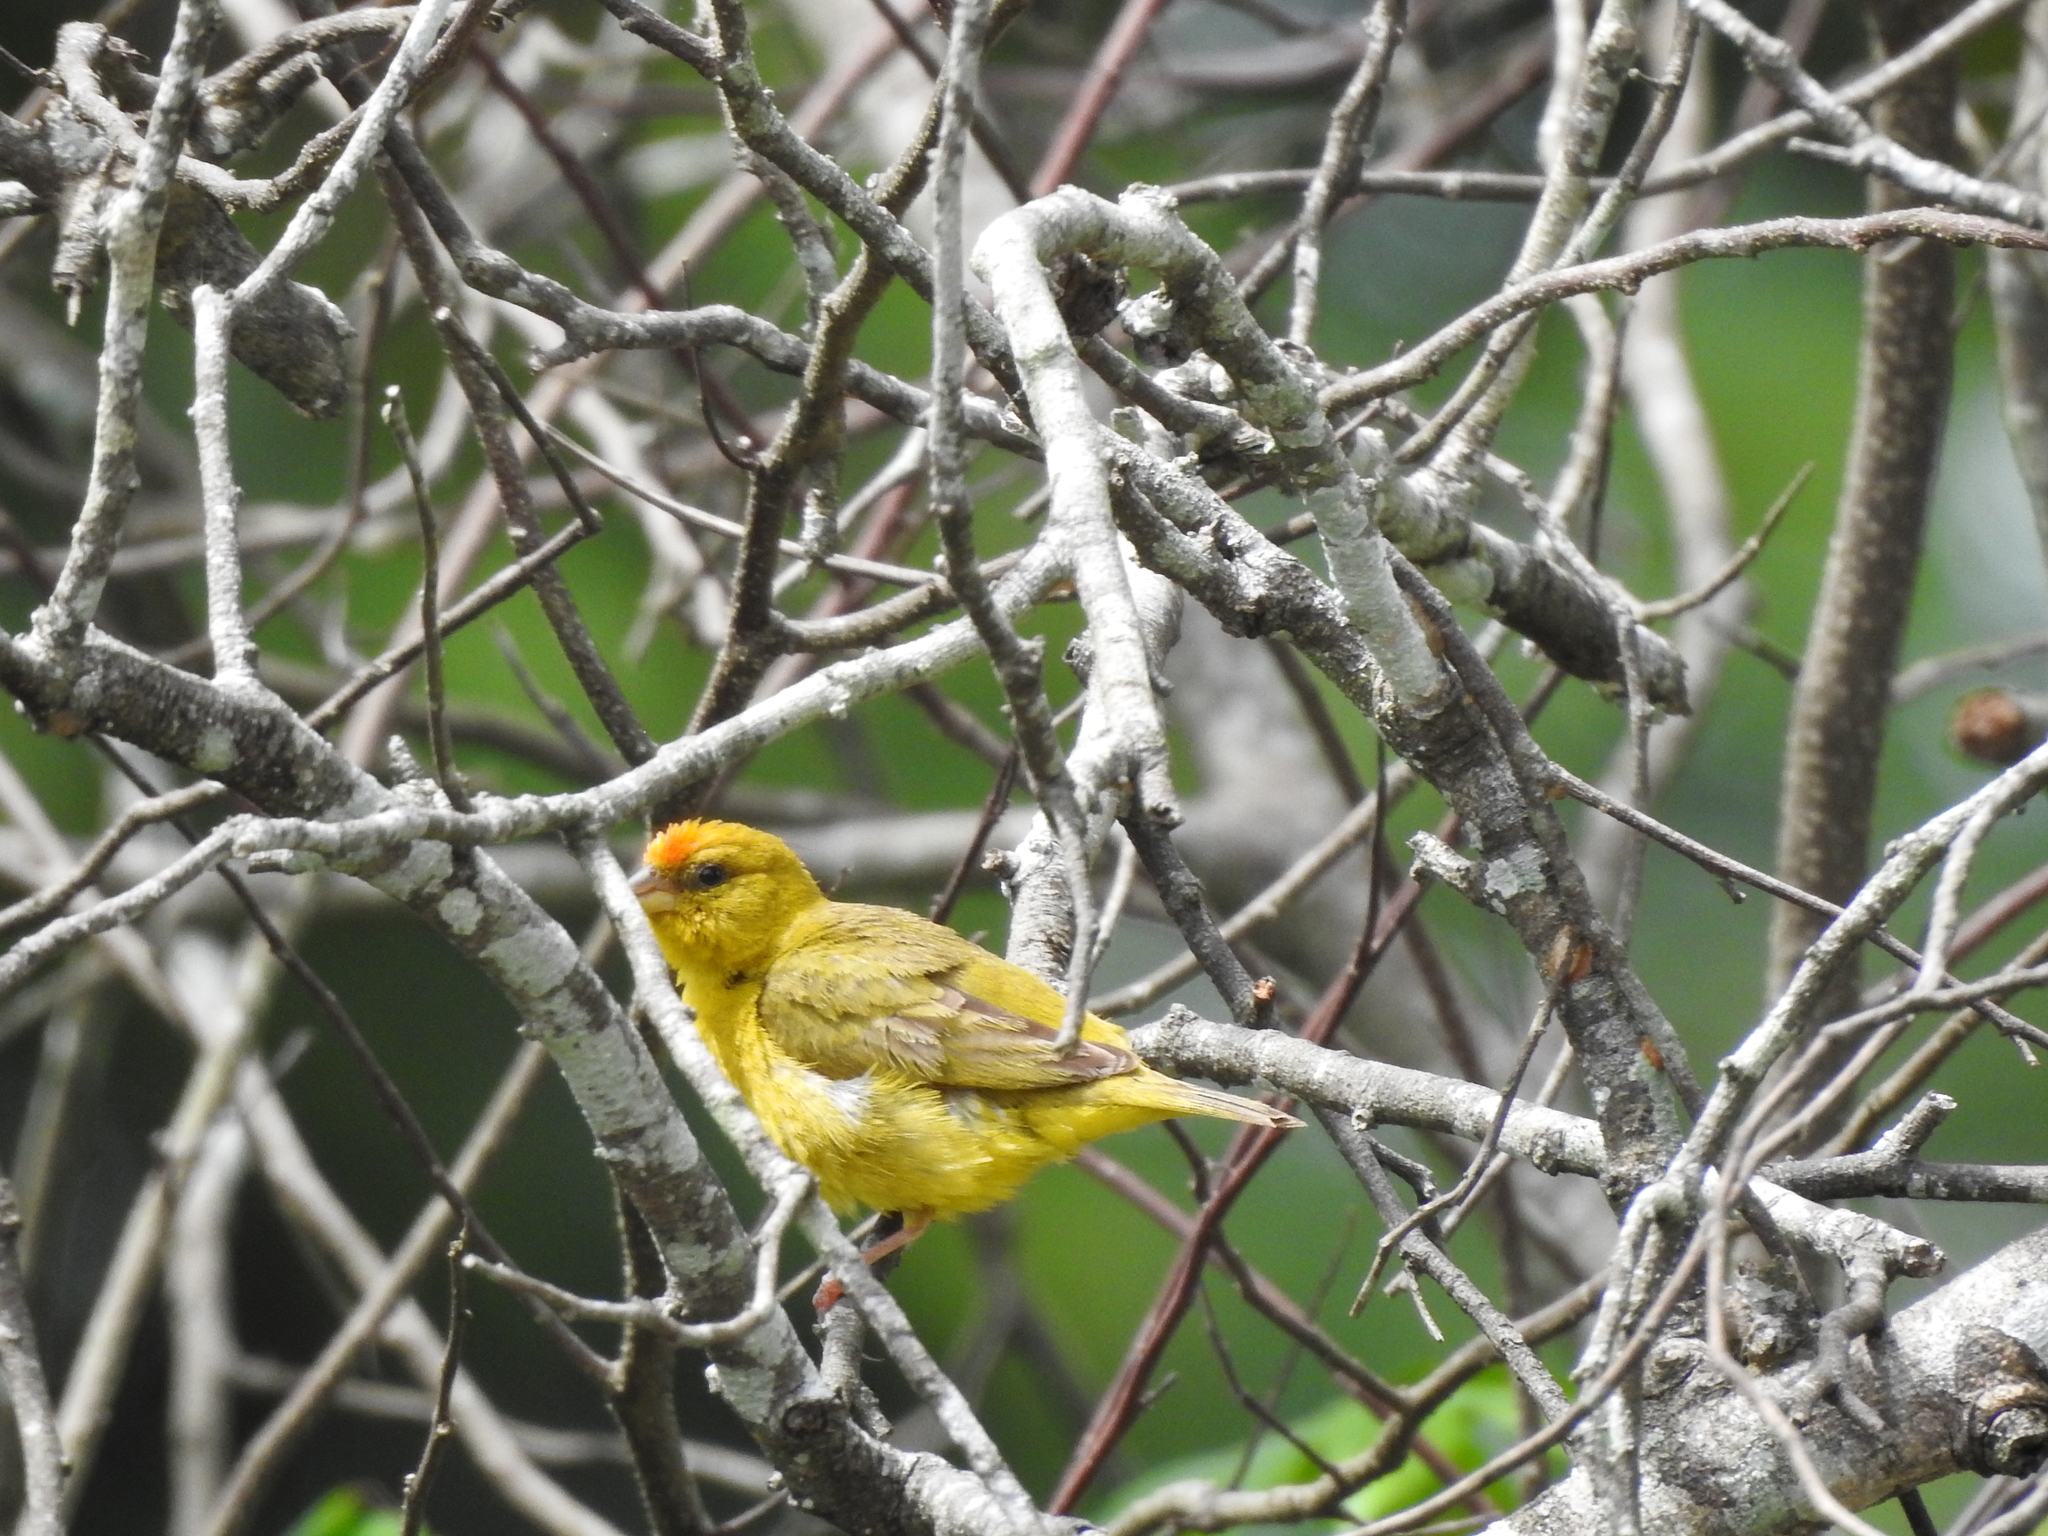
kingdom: Animalia
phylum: Chordata
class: Aves
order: Passeriformes
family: Thraupidae
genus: Sicalis
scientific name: Sicalis columbiana
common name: Orange-fronted yellow-finch
